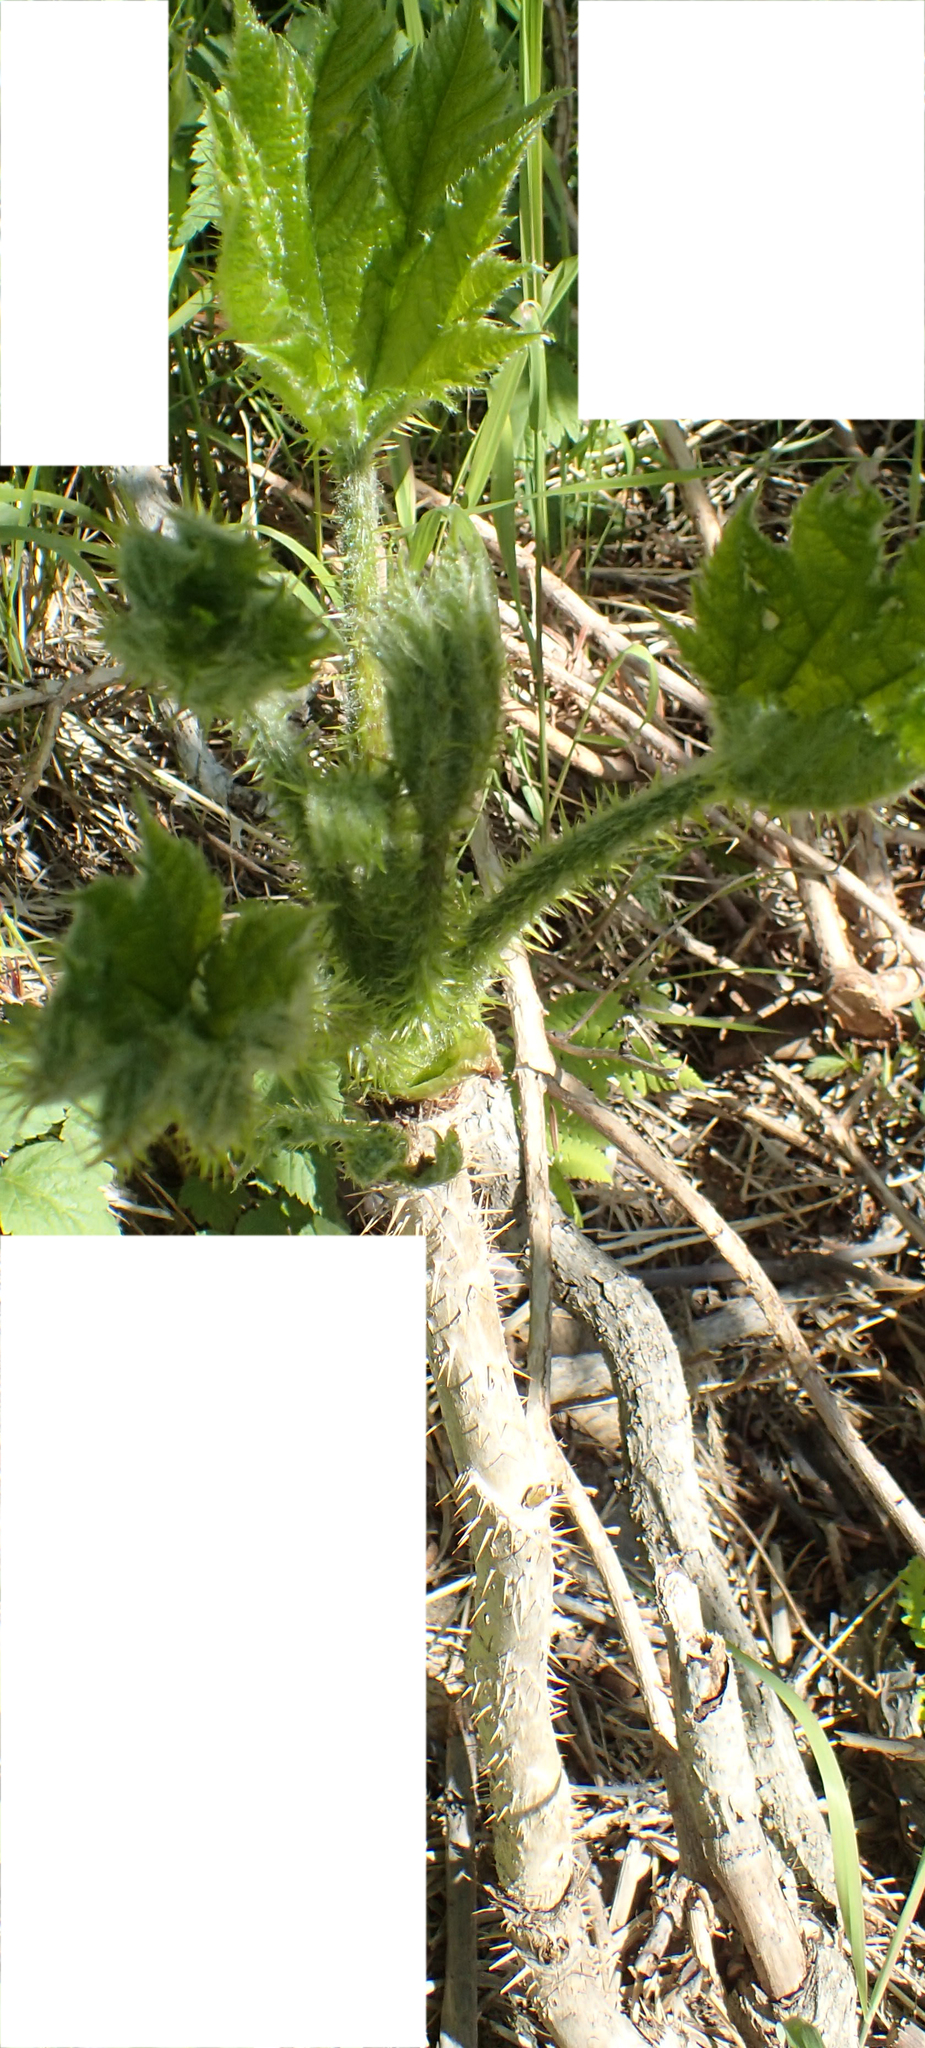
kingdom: Plantae
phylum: Tracheophyta
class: Magnoliopsida
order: Apiales
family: Araliaceae
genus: Oplopanax
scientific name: Oplopanax horridus
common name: Devil's walking-stick
